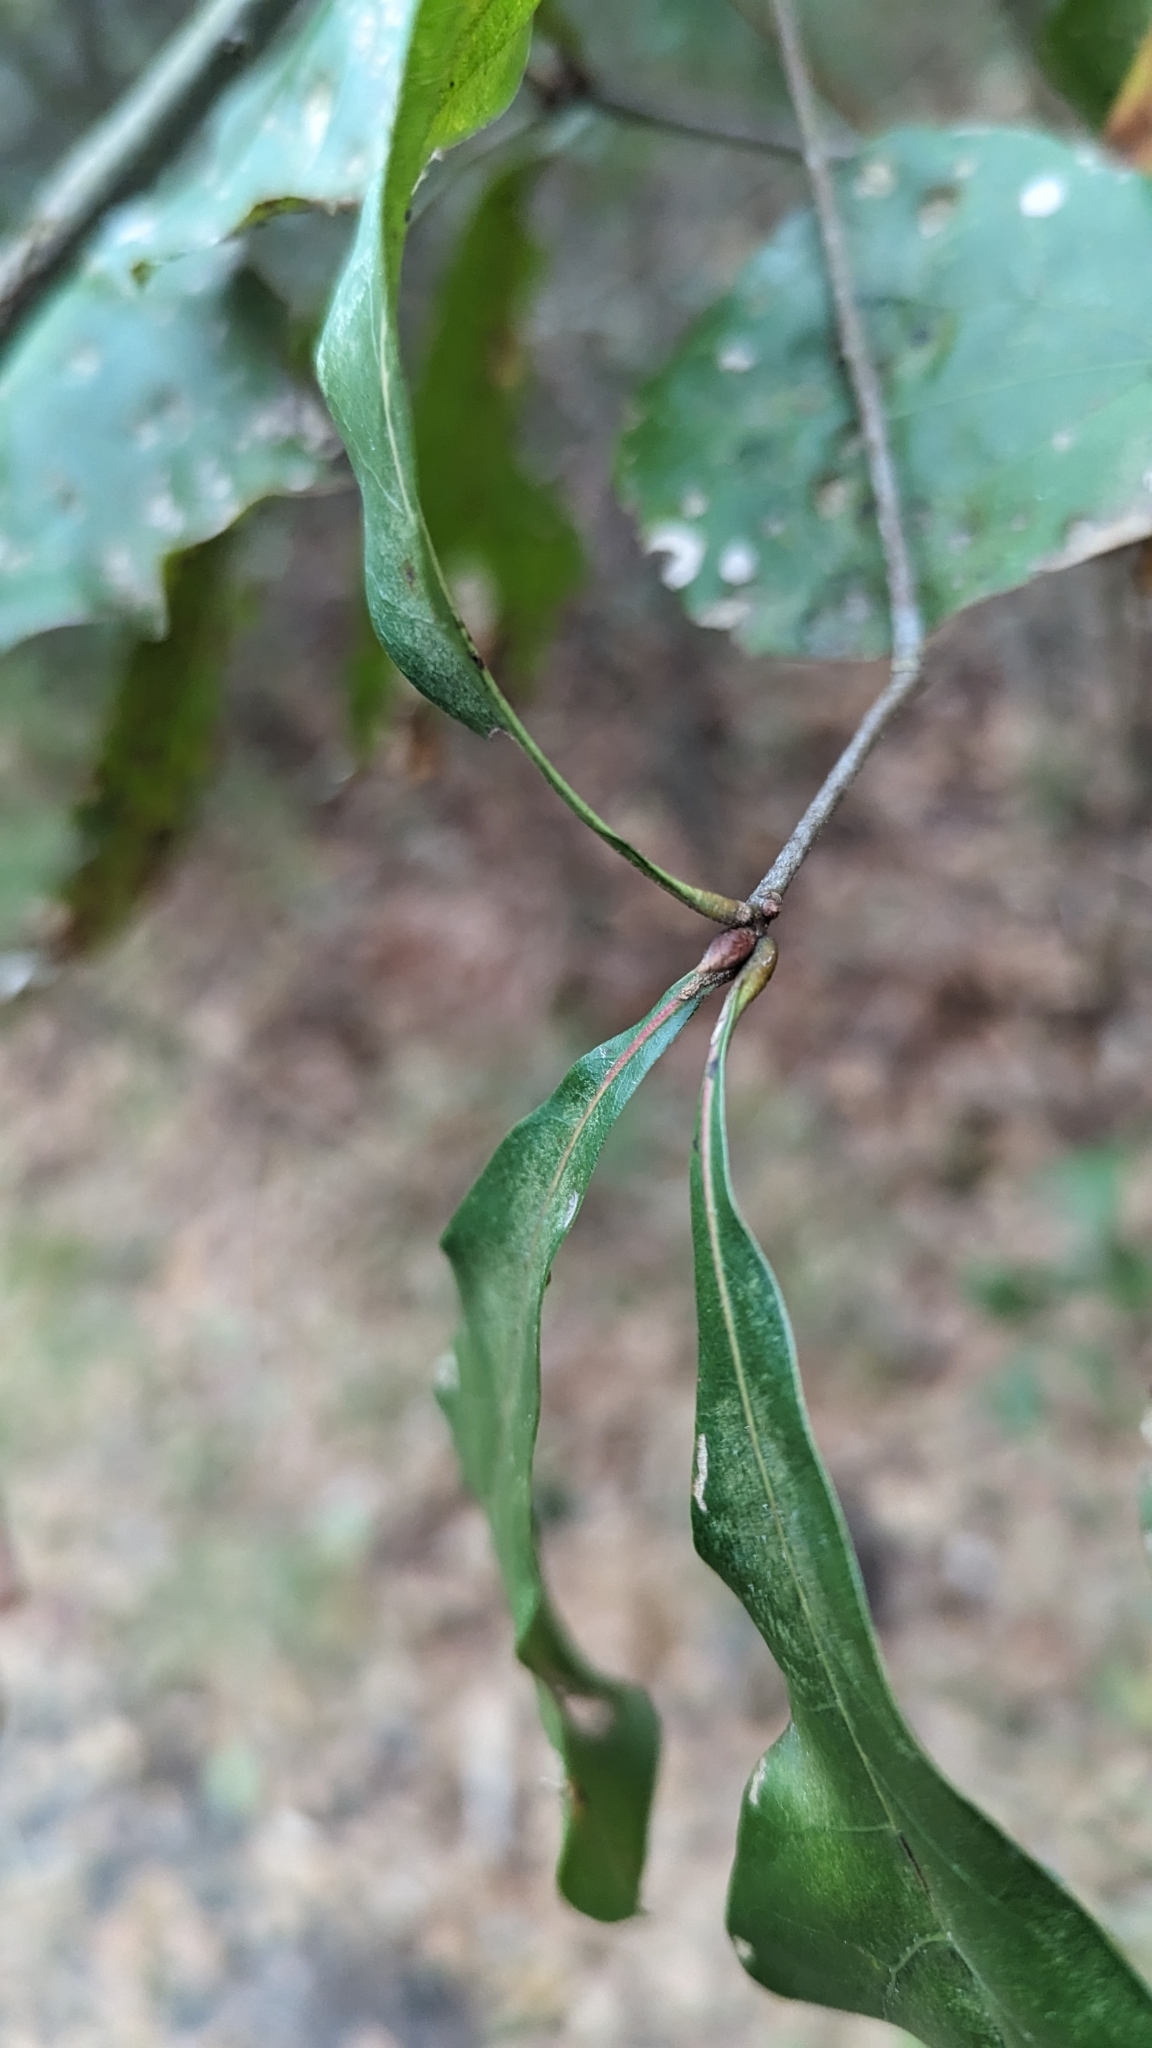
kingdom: Plantae
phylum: Tracheophyta
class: Magnoliopsida
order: Fagales
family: Fagaceae
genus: Quercus
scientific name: Quercus nigra
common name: Water oak
